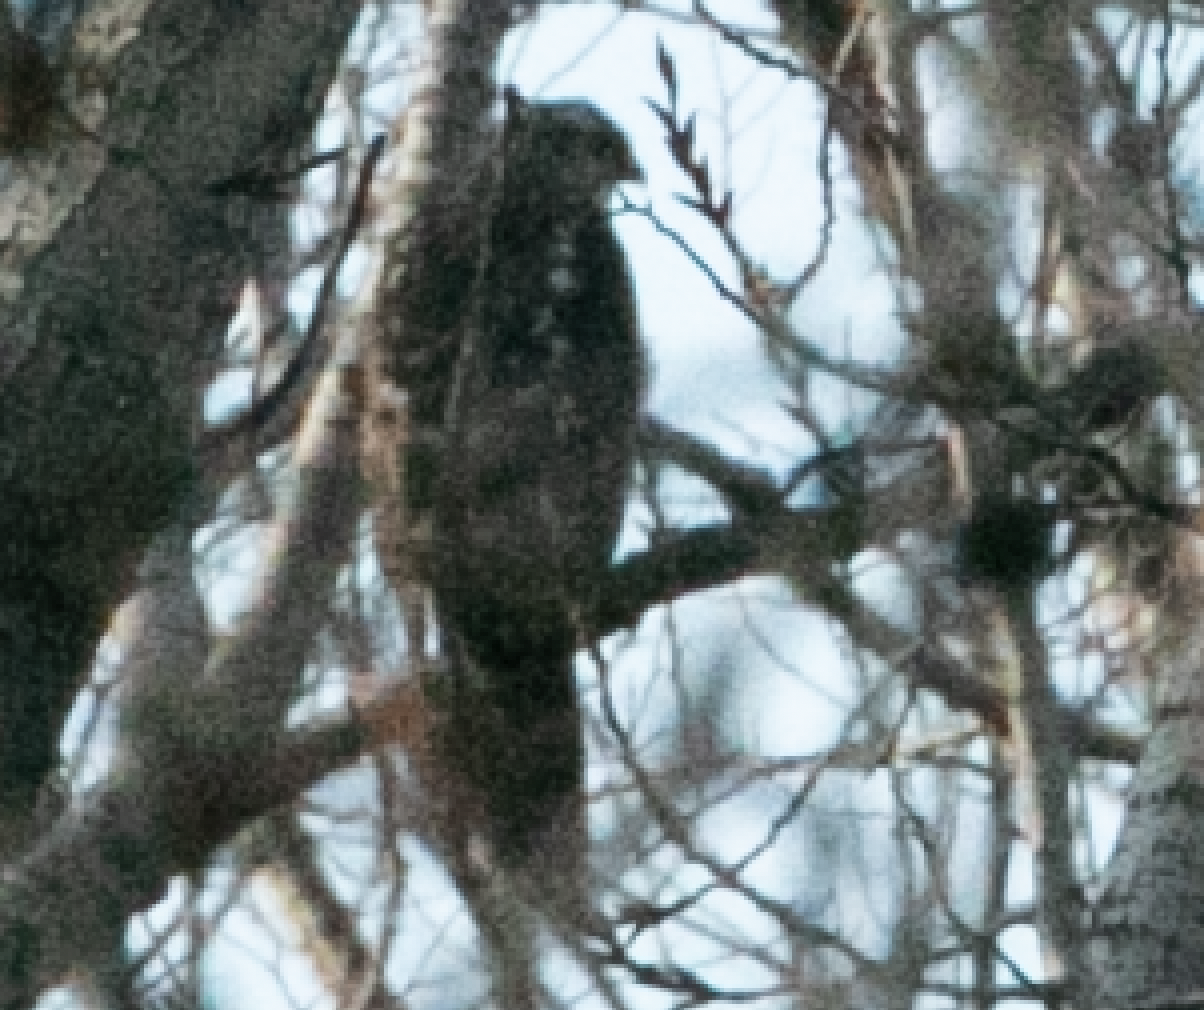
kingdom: Animalia
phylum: Chordata
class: Aves
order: Accipitriformes
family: Accipitridae
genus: Accipiter
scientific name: Accipiter nisus
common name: Eurasian sparrowhawk
